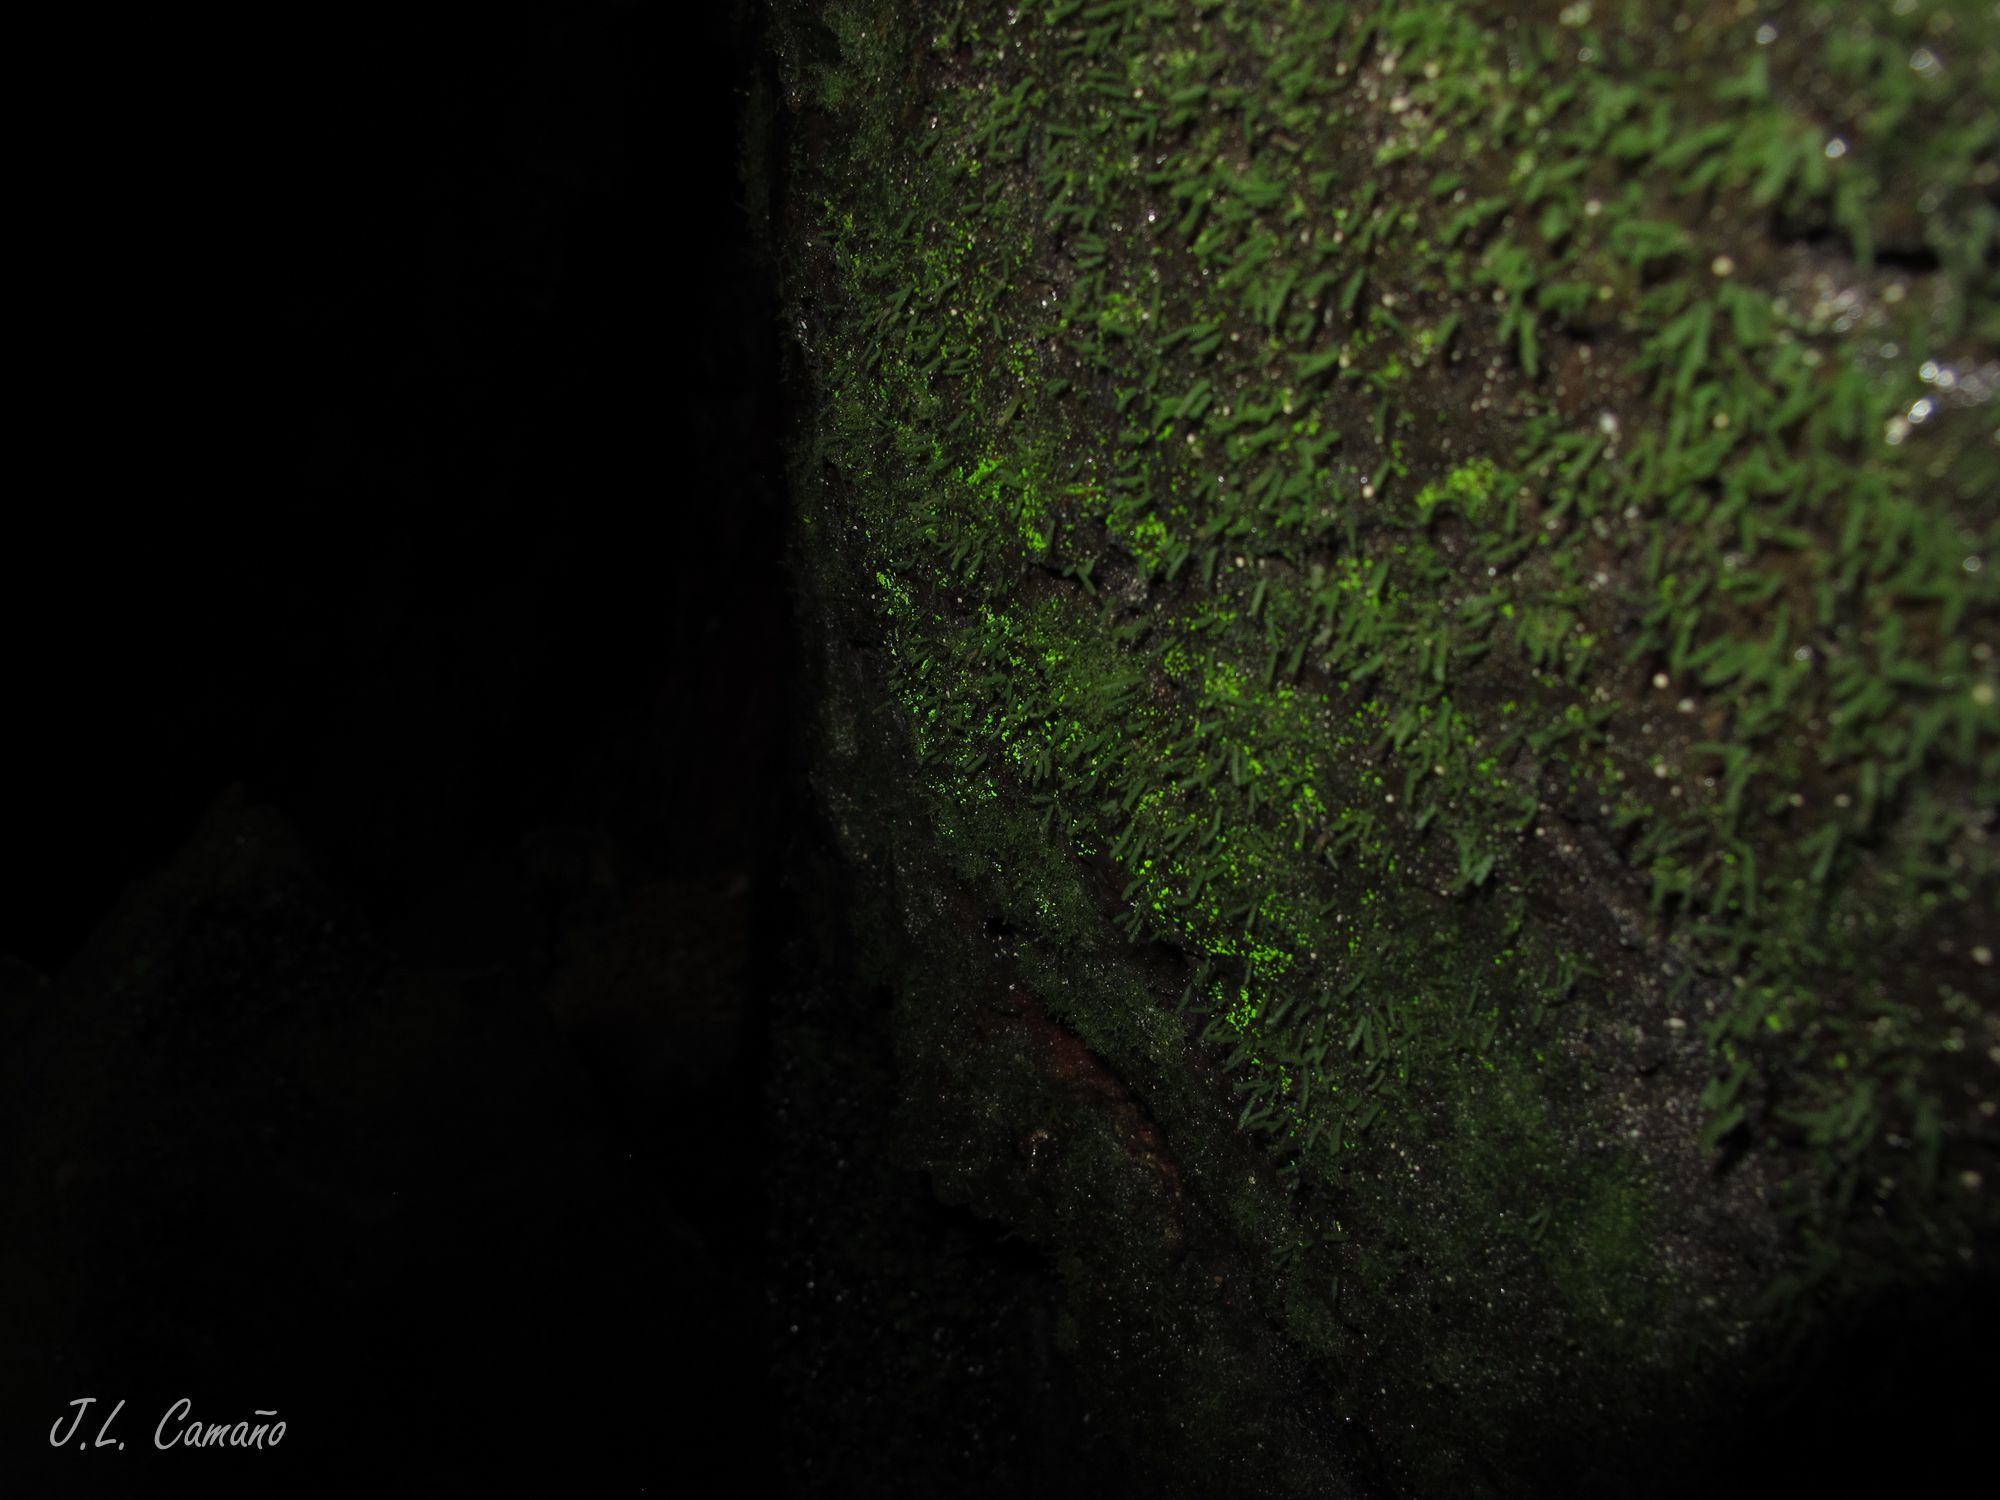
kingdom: Plantae
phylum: Bryophyta
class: Bryopsida
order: Dicranales
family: Schistostegaceae
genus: Schistostega
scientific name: Schistostega pennata
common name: Luminous moss
